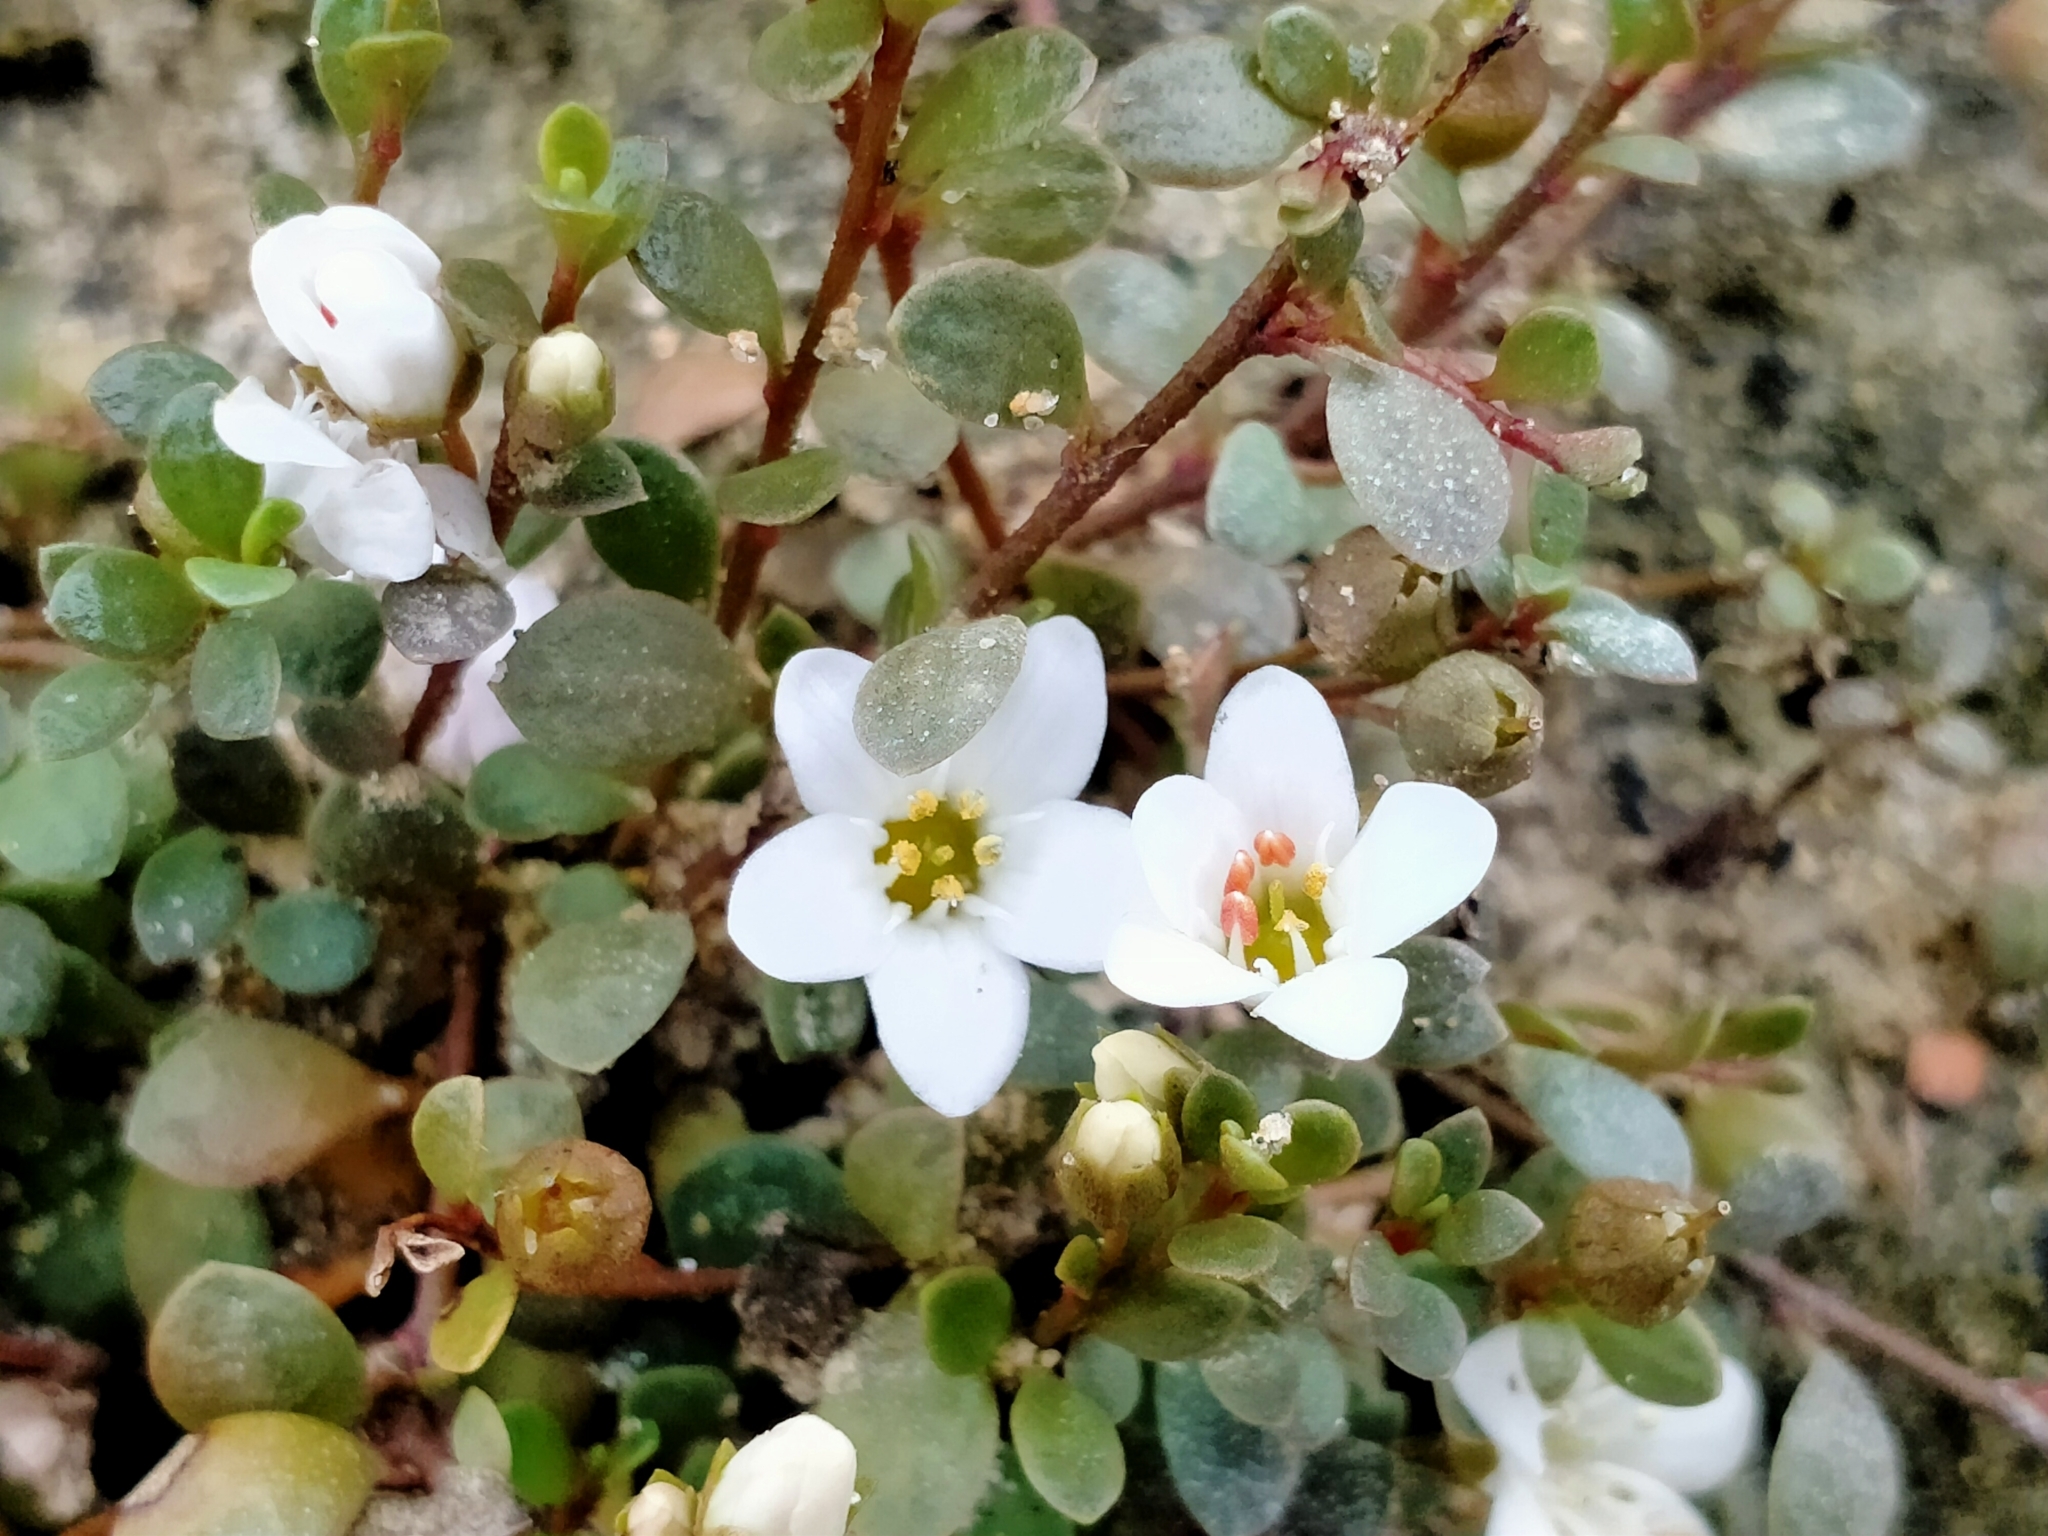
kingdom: Plantae
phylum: Tracheophyta
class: Magnoliopsida
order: Ericales
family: Primulaceae
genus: Samolus
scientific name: Samolus repens
